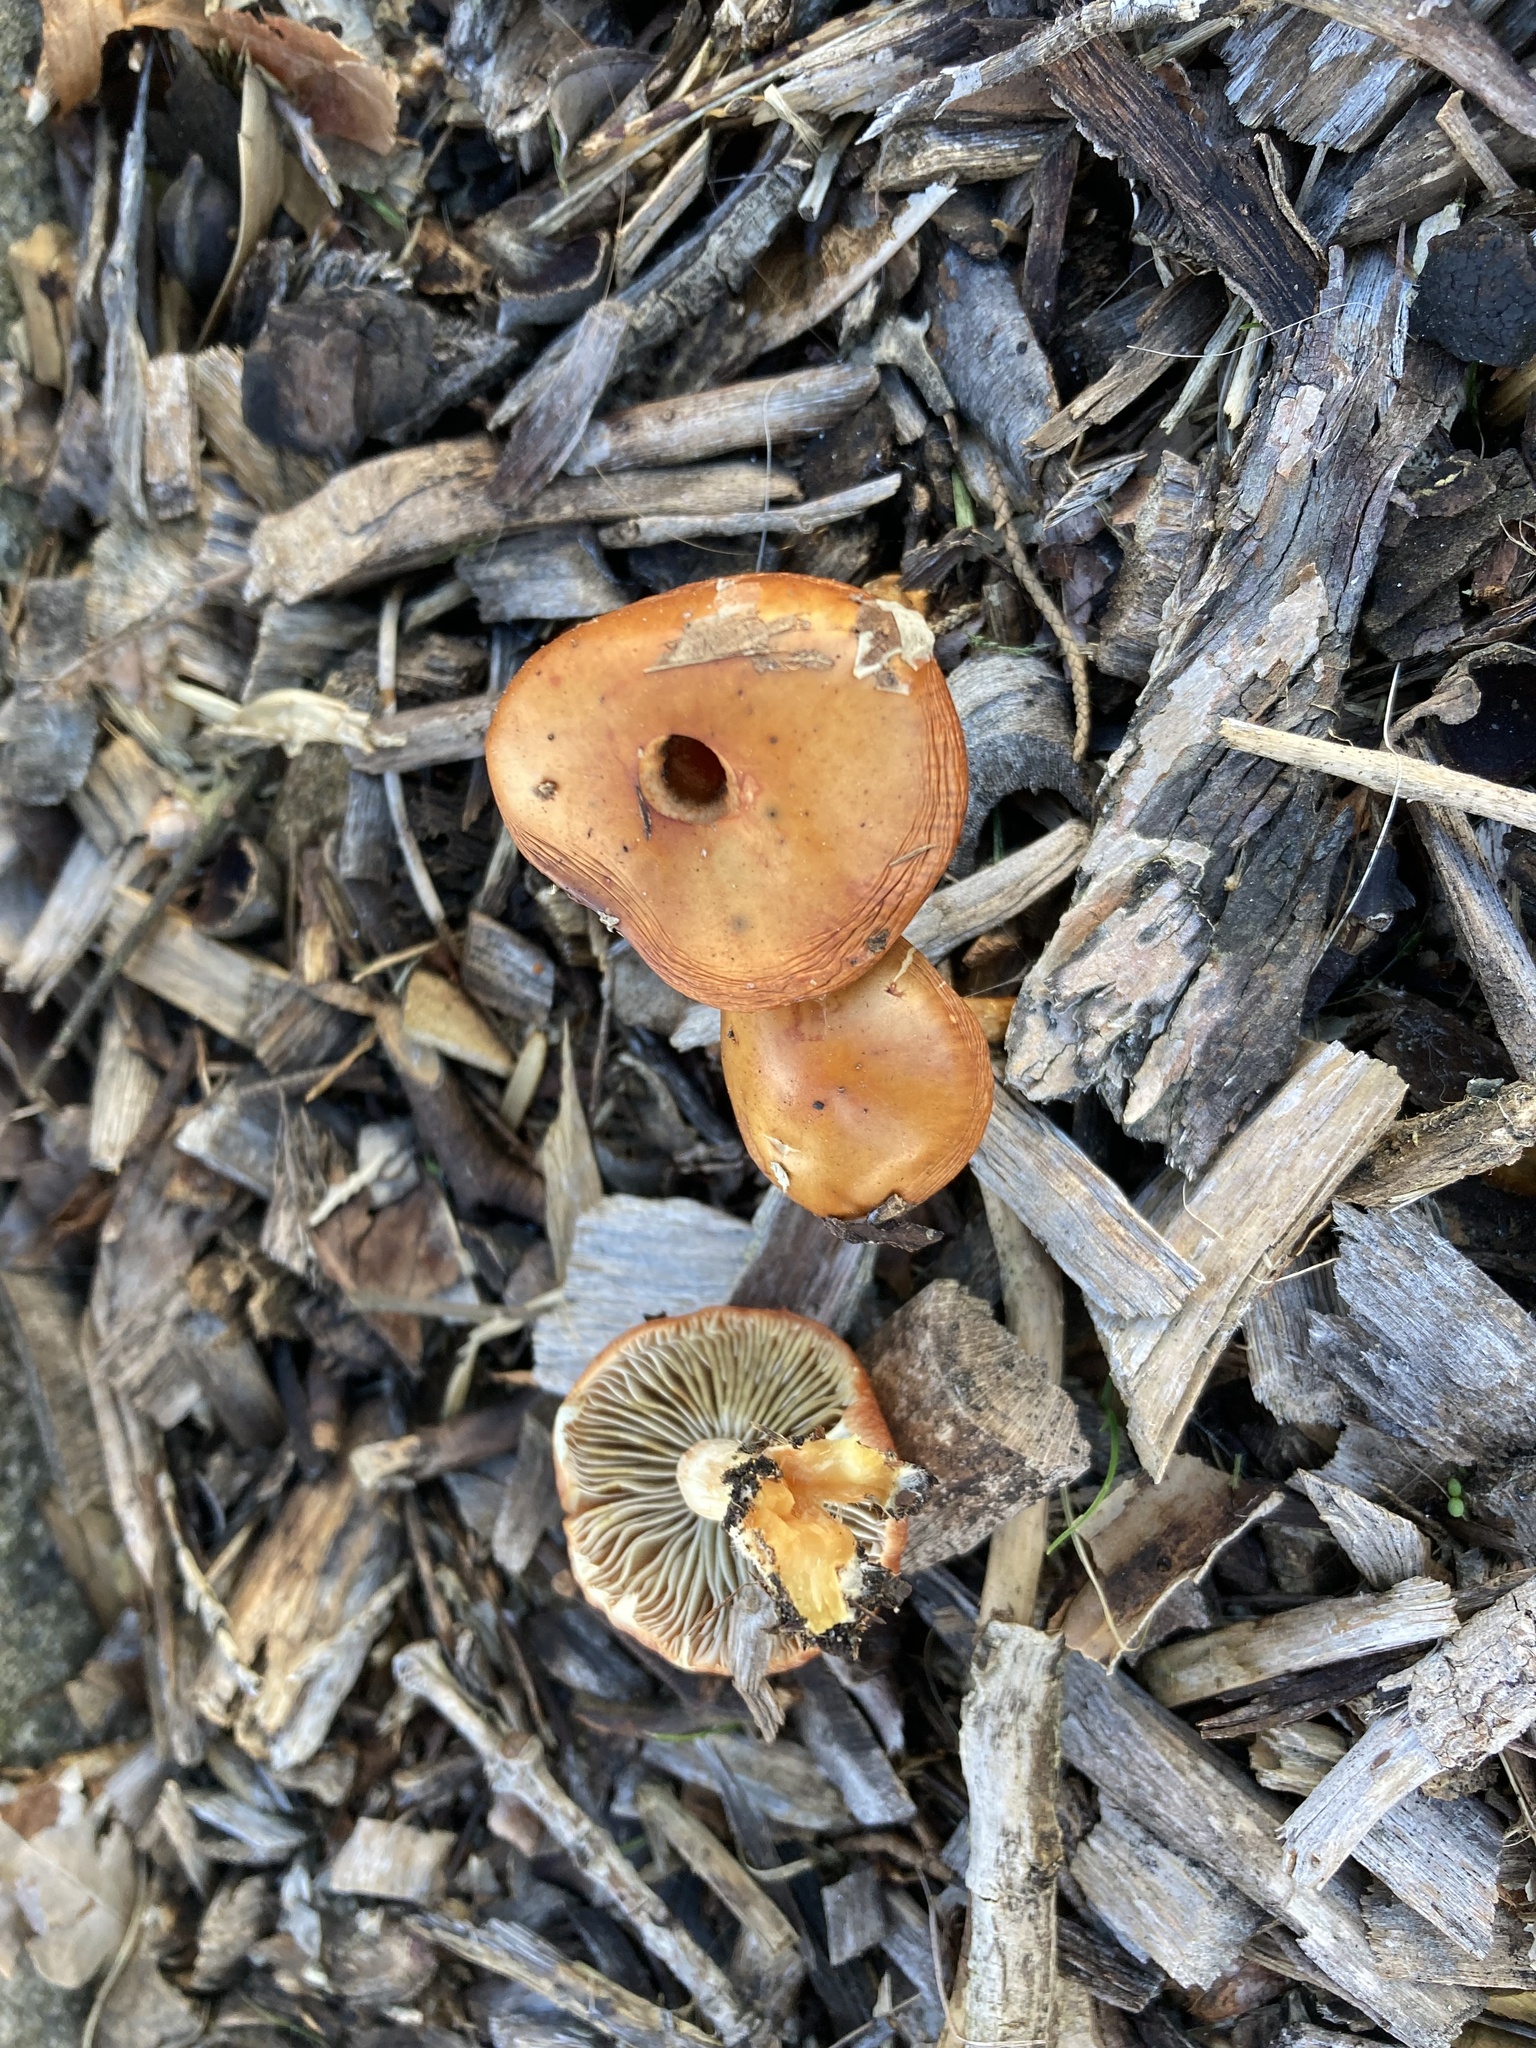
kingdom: Fungi
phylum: Basidiomycota
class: Agaricomycetes
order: Agaricales
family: Strophariaceae
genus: Leratiomyces
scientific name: Leratiomyces ceres
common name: Redlead roundhead
